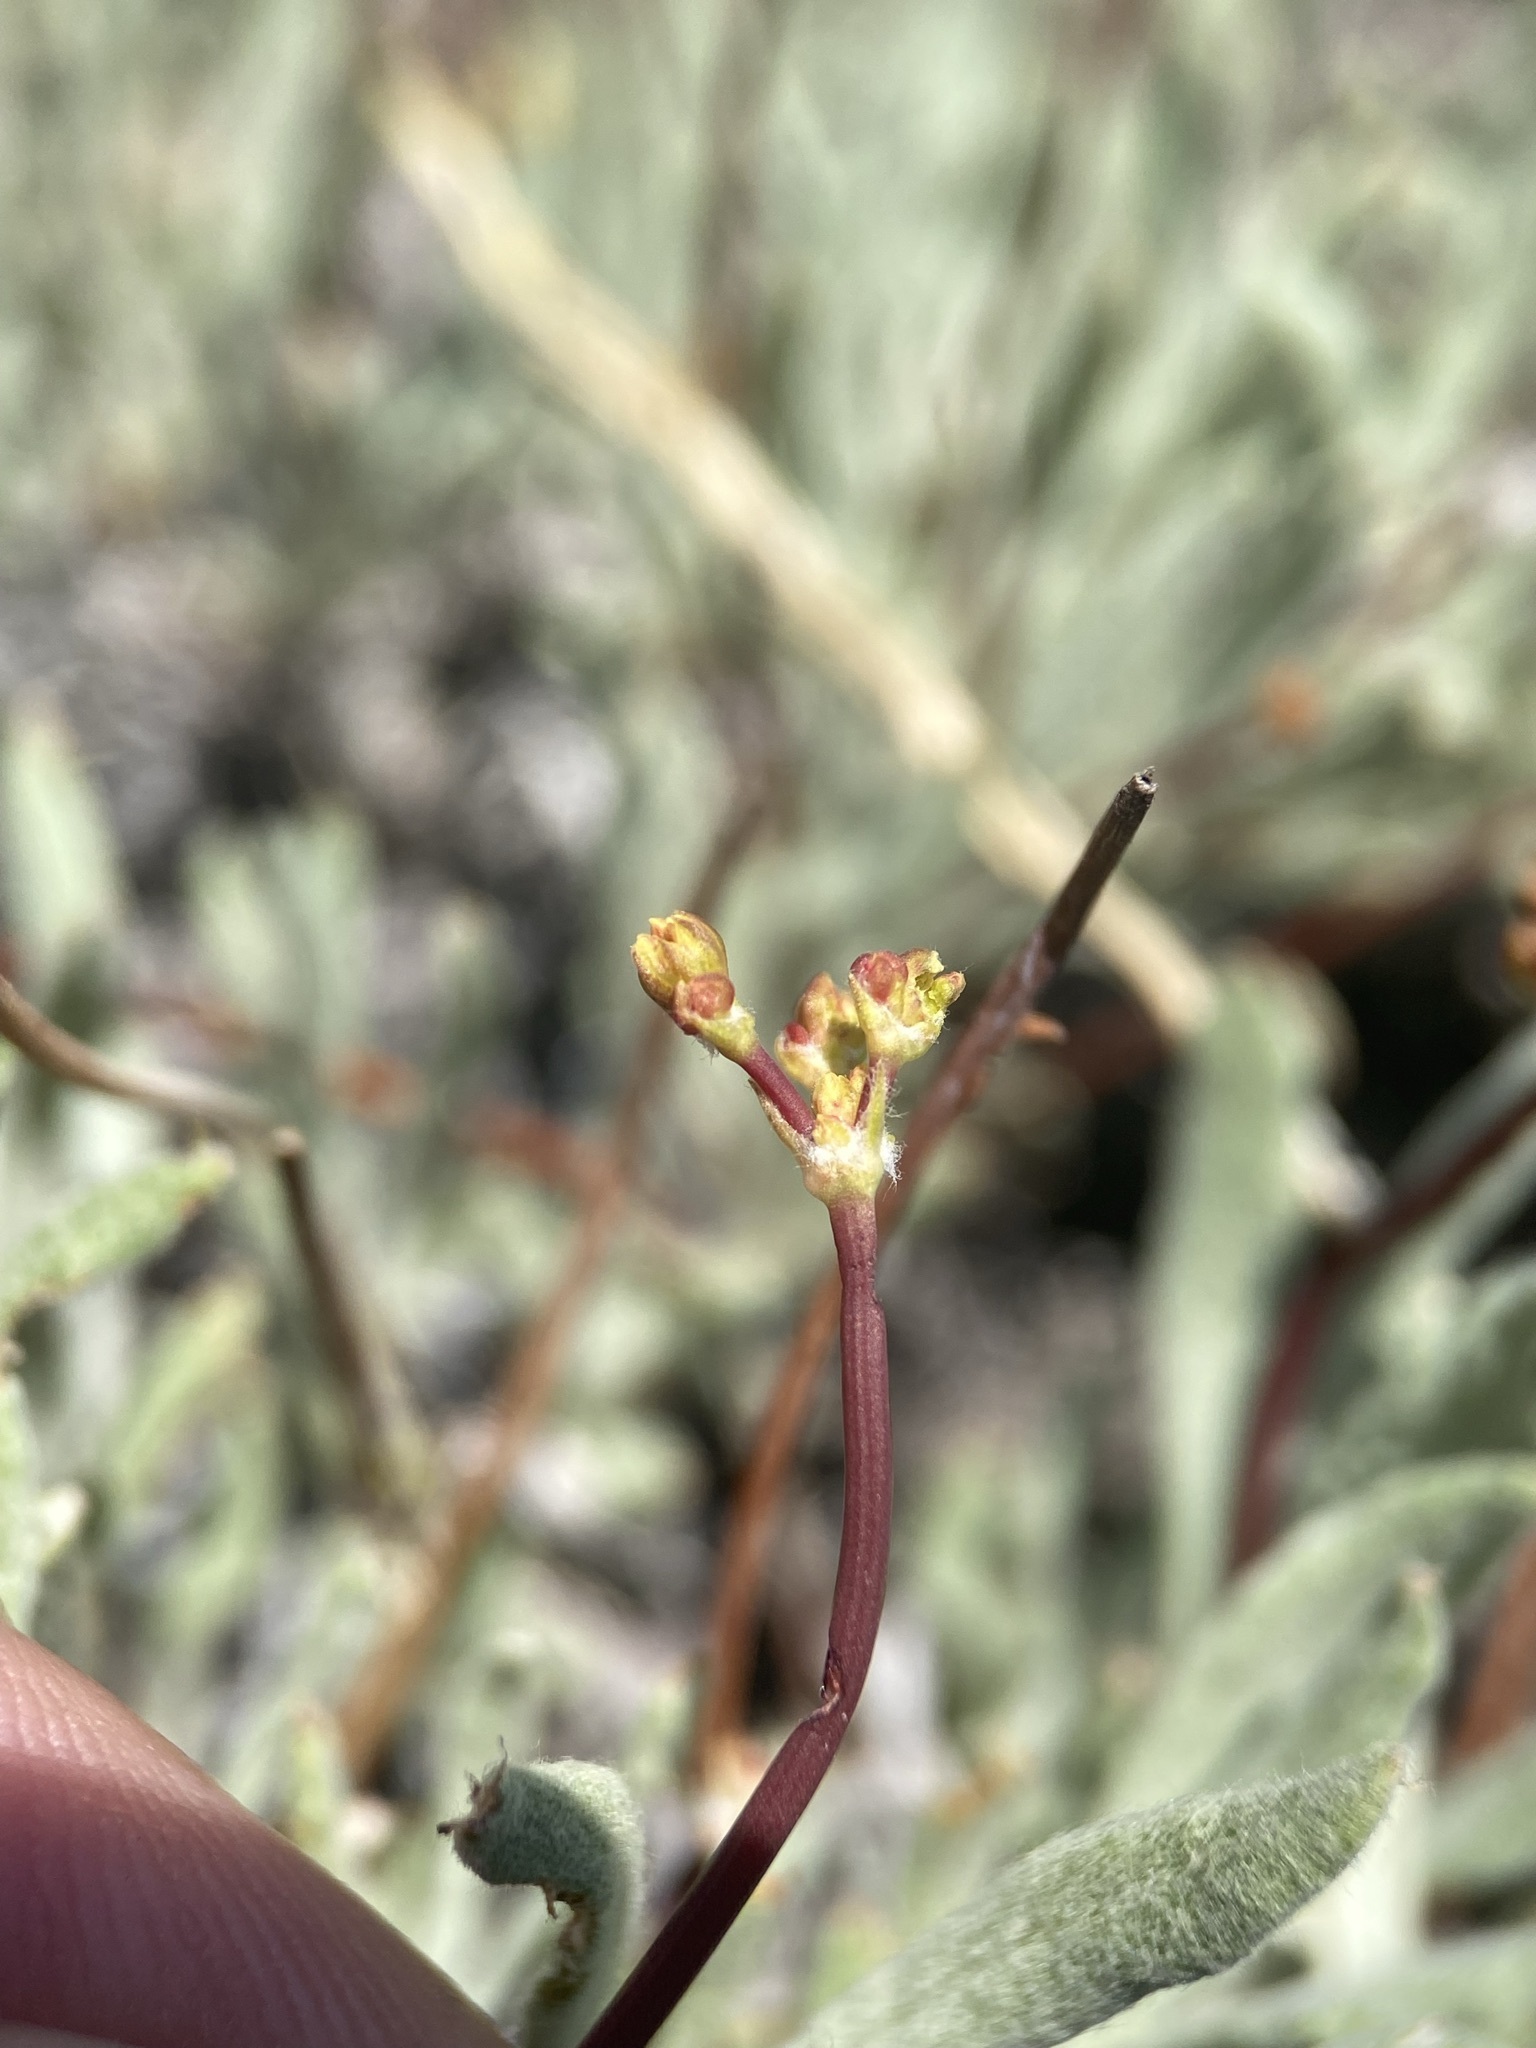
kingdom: Plantae
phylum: Tracheophyta
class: Magnoliopsida
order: Caryophyllales
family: Polygonaceae
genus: Eriogonum
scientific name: Eriogonum brevicaule
